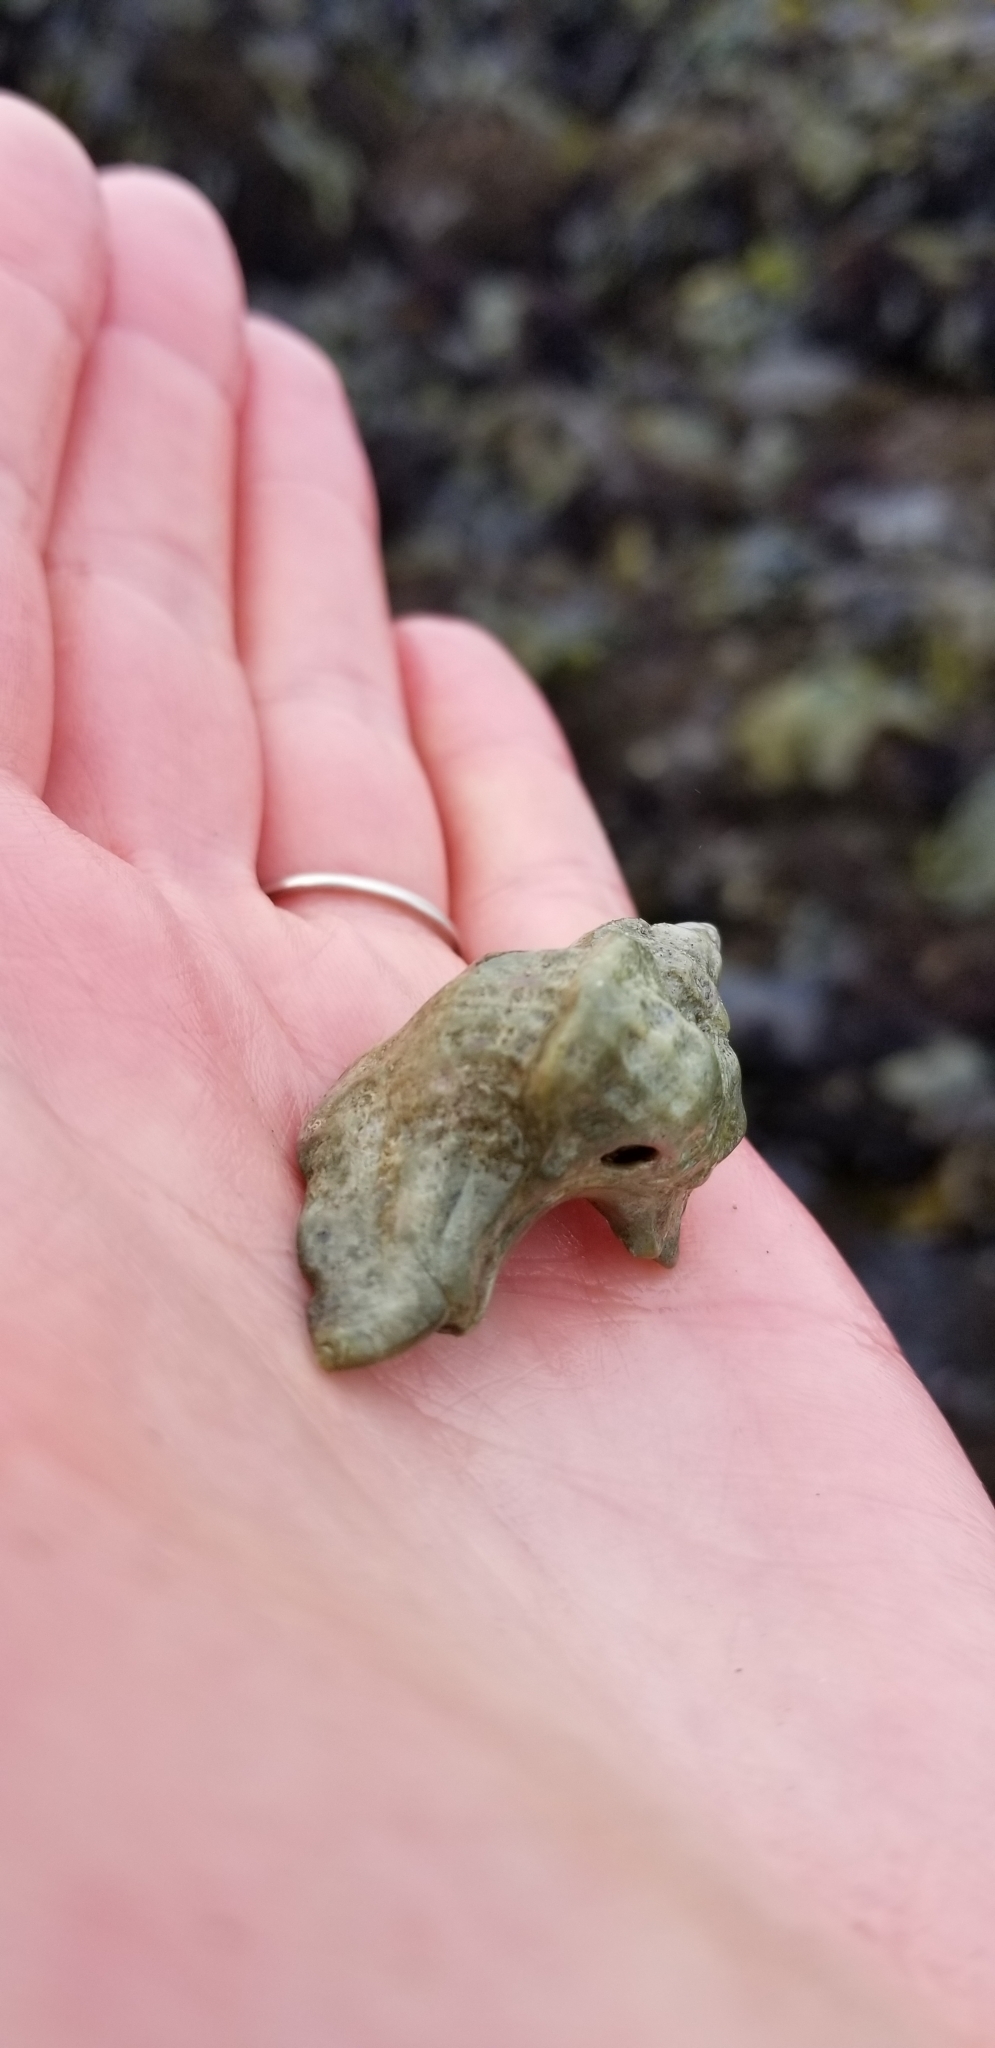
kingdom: Animalia
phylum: Mollusca
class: Gastropoda
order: Neogastropoda
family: Muricidae
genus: Ceratostoma
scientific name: Ceratostoma foliatum
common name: Foliate thorn purpura
